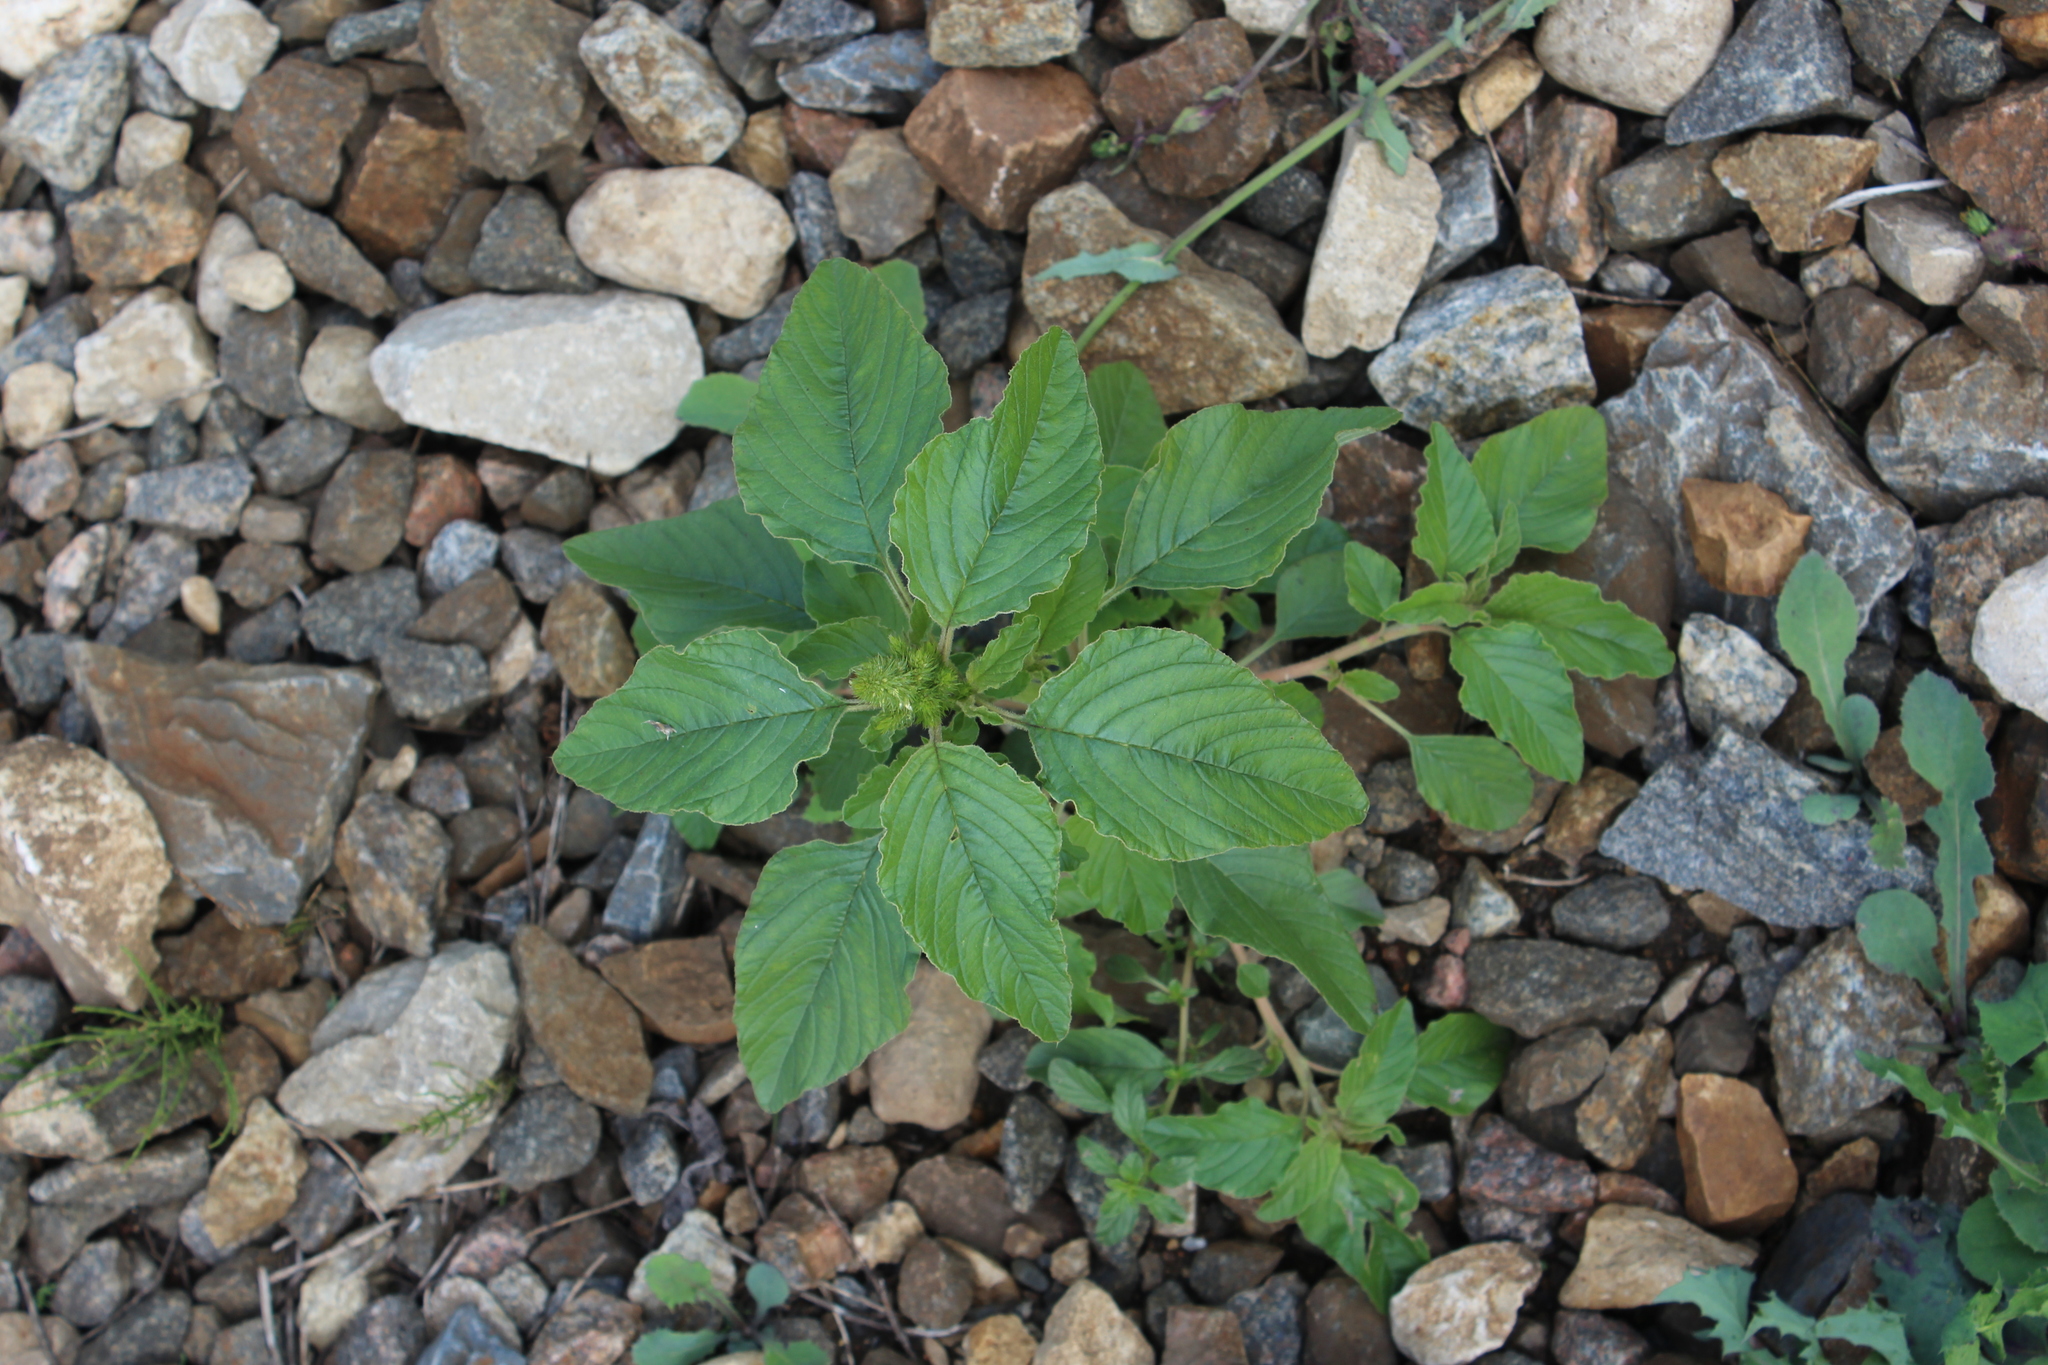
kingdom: Plantae
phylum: Tracheophyta
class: Magnoliopsida
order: Caryophyllales
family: Amaranthaceae
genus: Amaranthus
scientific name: Amaranthus retroflexus
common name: Redroot amaranth
